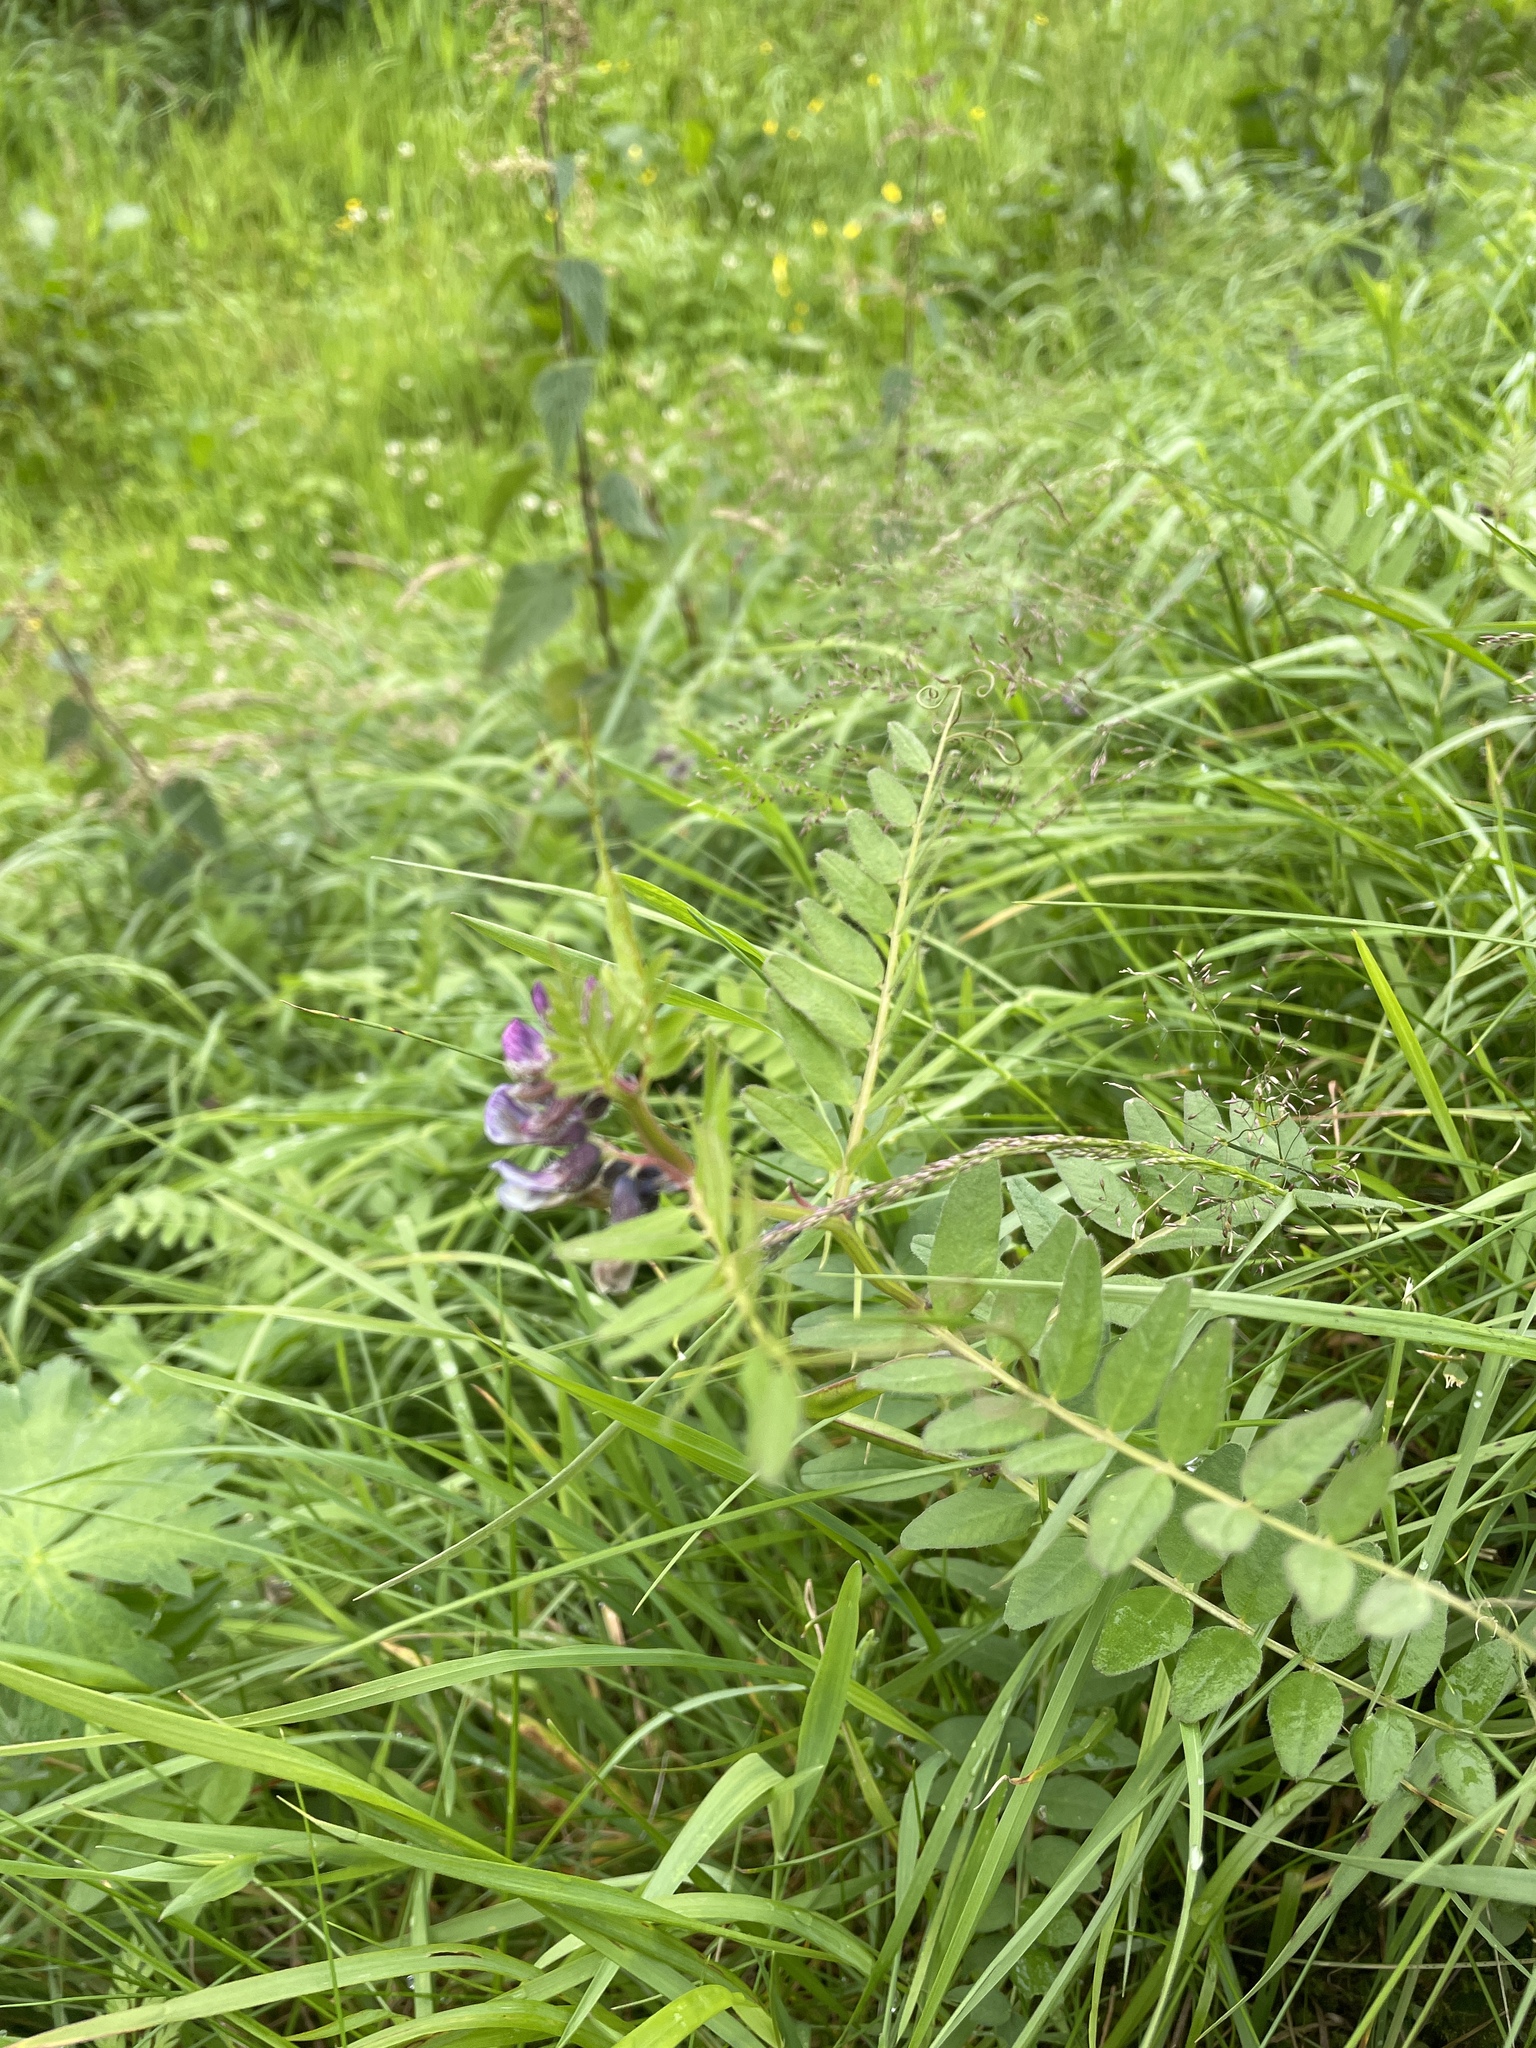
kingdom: Plantae
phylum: Tracheophyta
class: Magnoliopsida
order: Fabales
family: Fabaceae
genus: Vicia
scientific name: Vicia sepium
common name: Bush vetch
